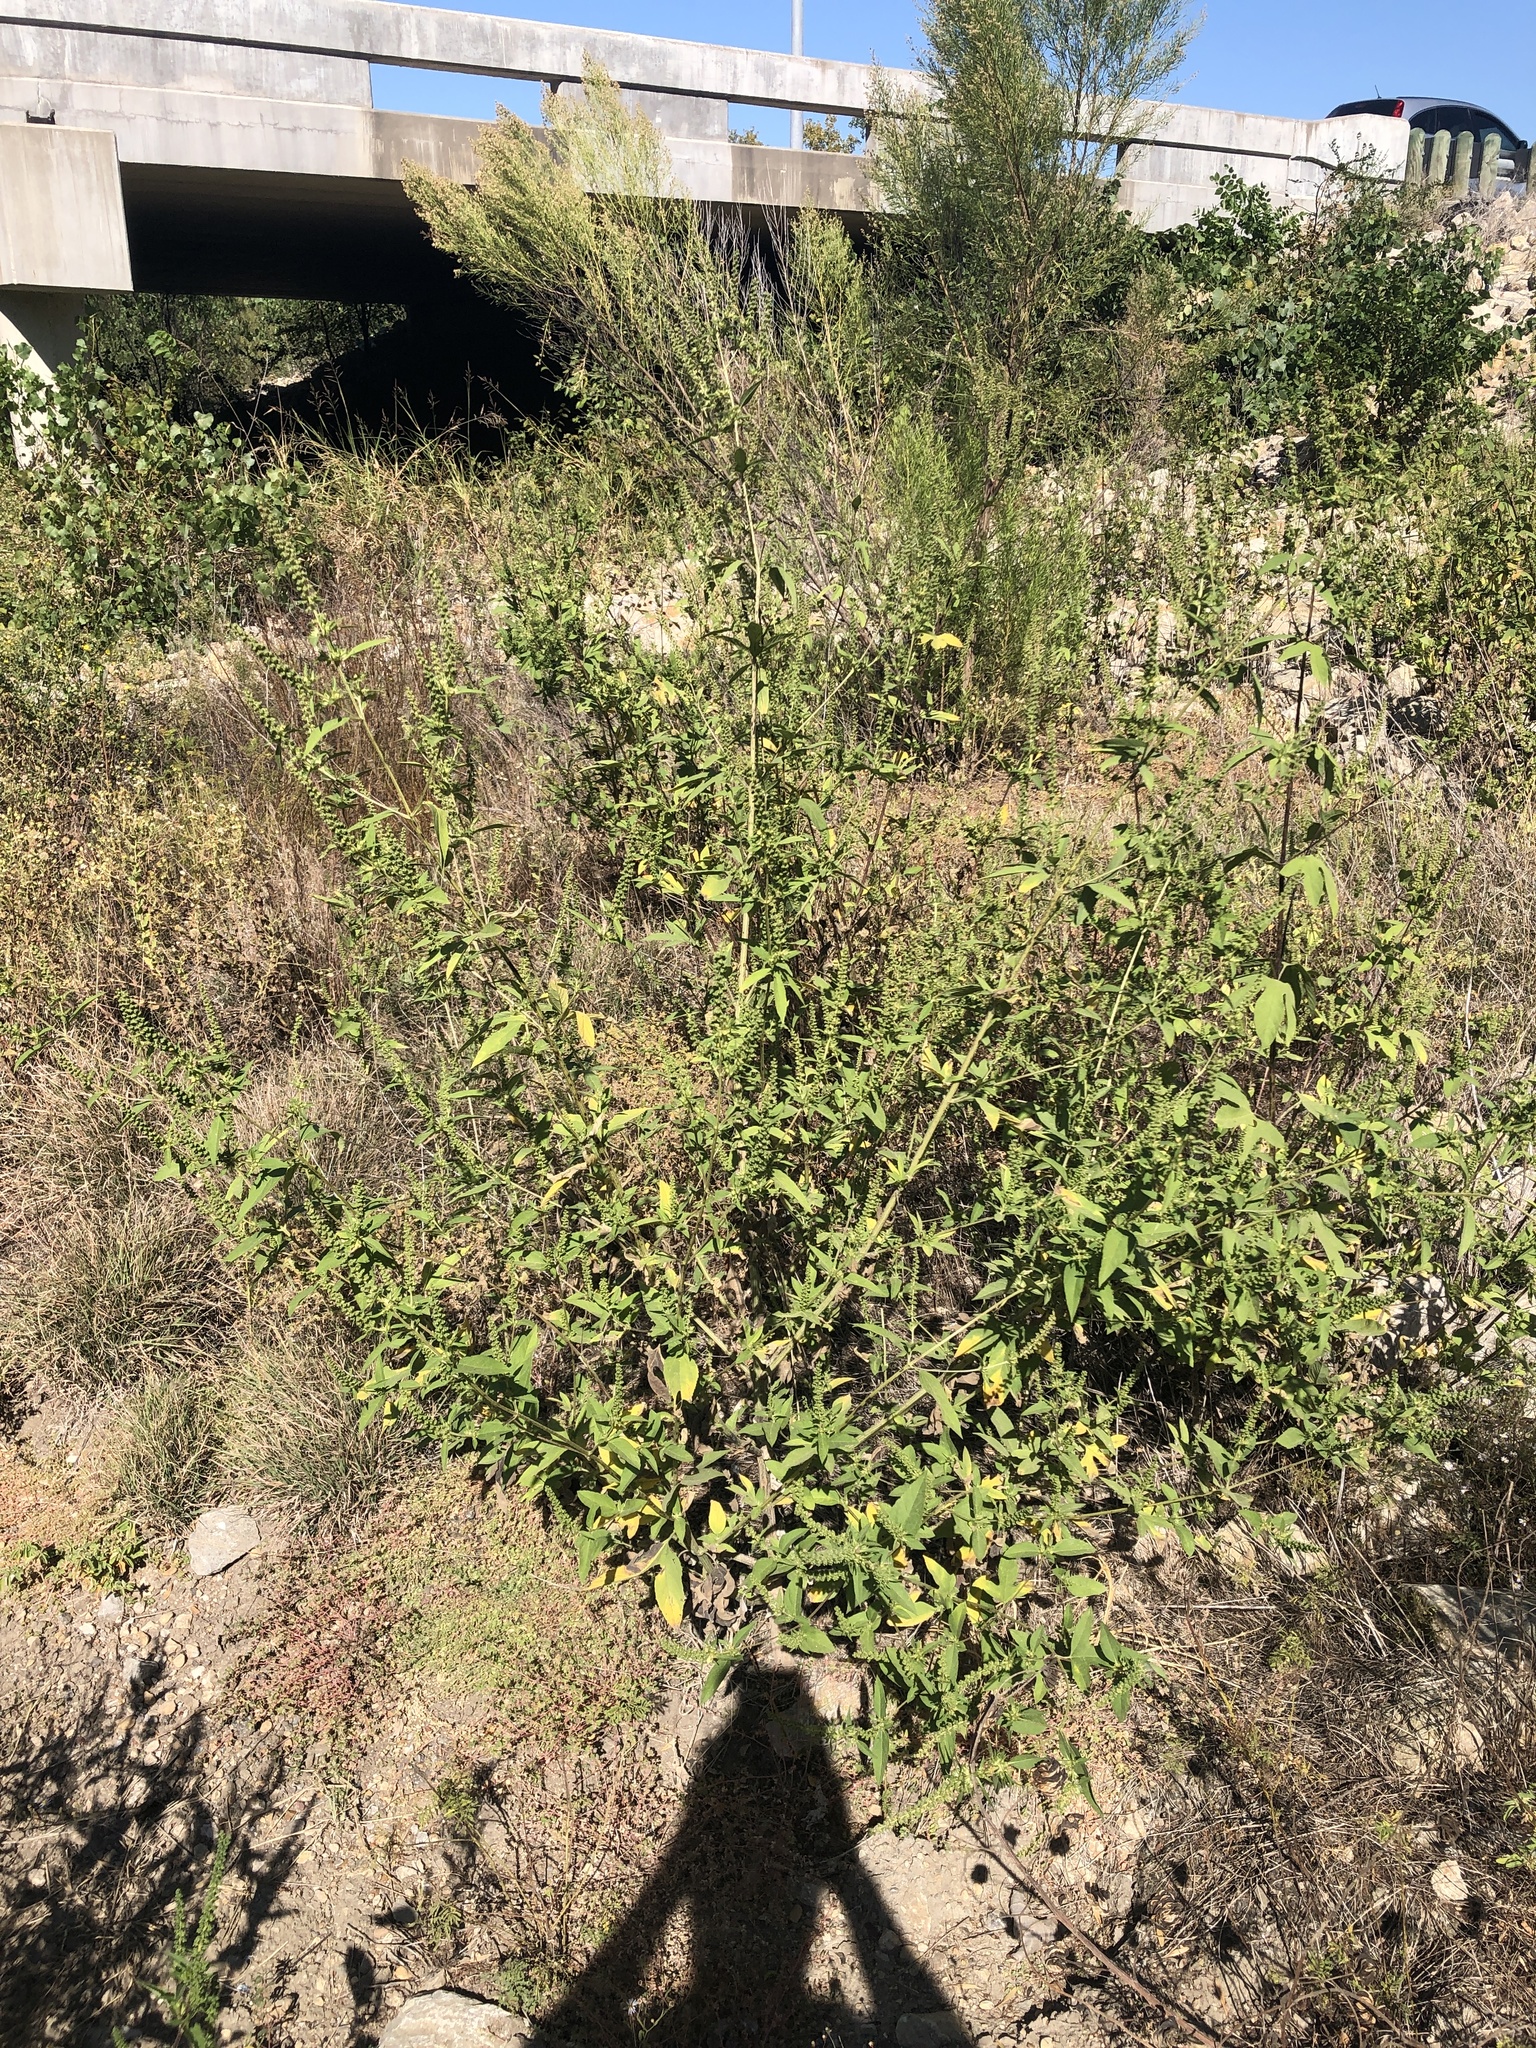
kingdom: Plantae
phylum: Tracheophyta
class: Magnoliopsida
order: Asterales
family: Asteraceae
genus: Ambrosia
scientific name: Ambrosia trifida
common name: Giant ragweed
